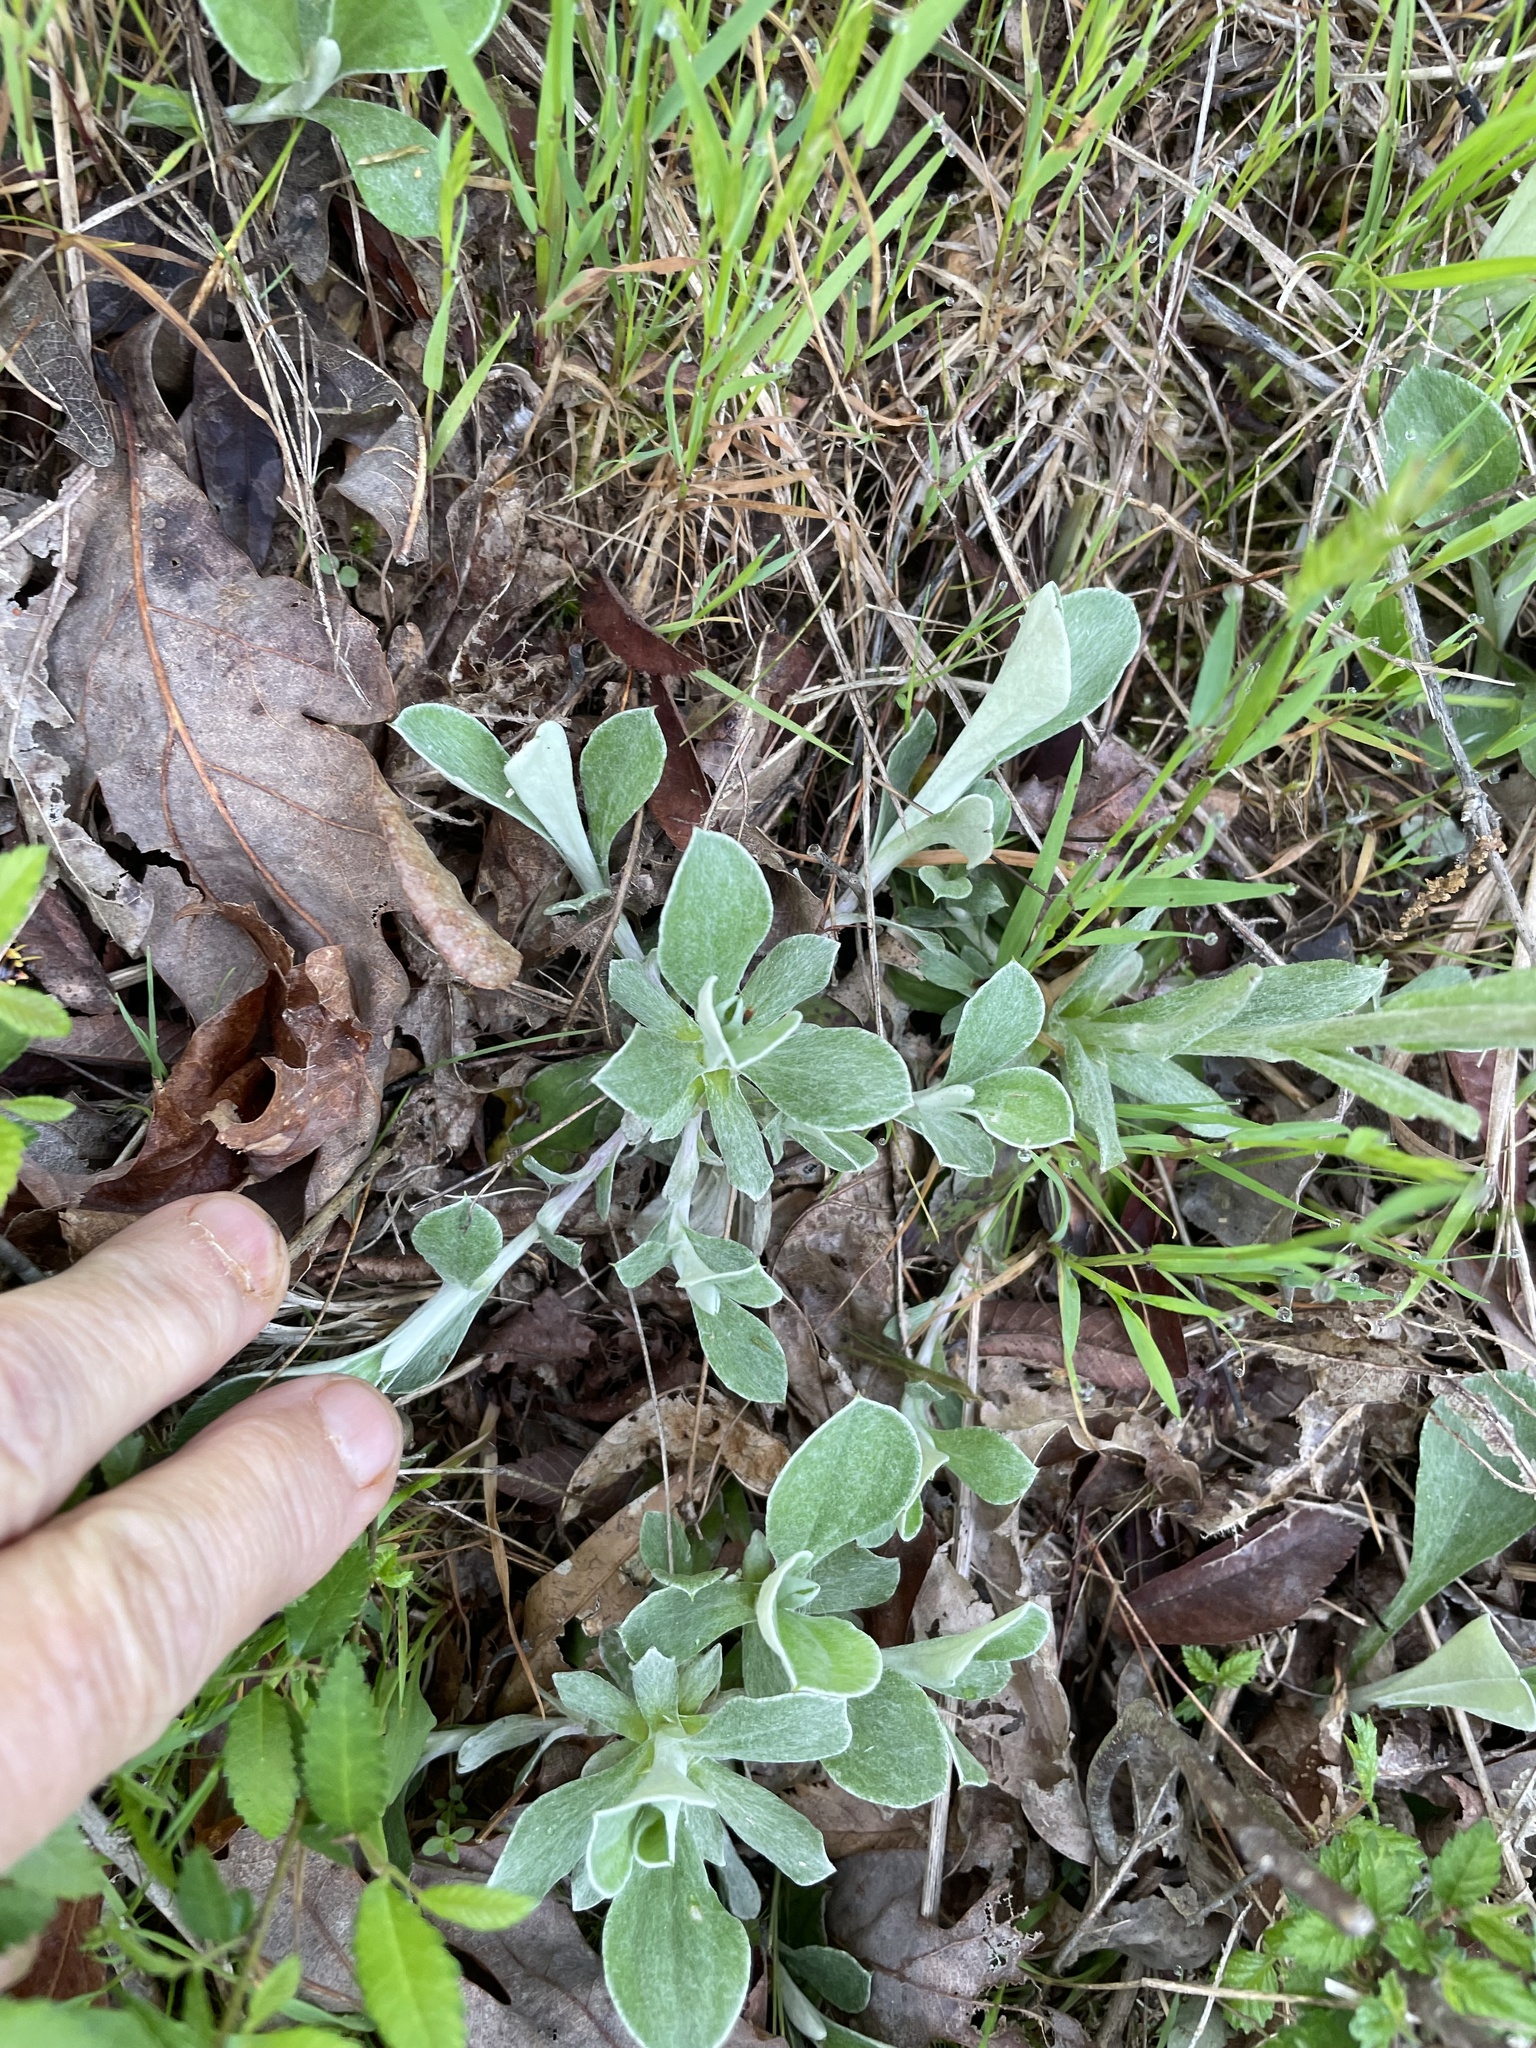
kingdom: Plantae
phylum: Tracheophyta
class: Magnoliopsida
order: Asterales
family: Asteraceae
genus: Antennaria
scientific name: Antennaria parlinii
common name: Parlin's pussytoes
